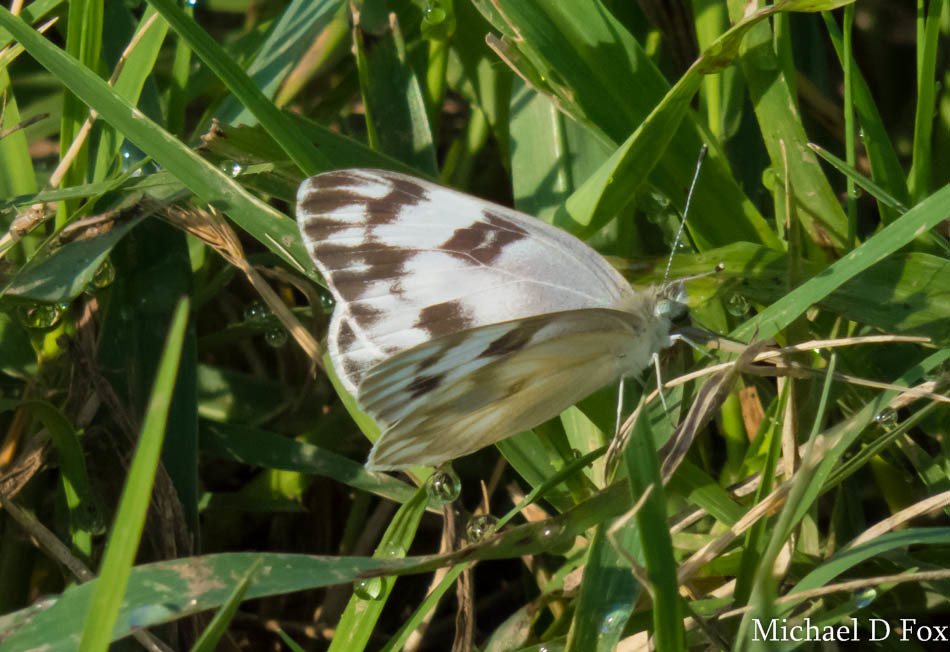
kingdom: Animalia
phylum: Arthropoda
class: Insecta
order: Lepidoptera
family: Pieridae
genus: Pontia
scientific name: Pontia protodice
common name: Checkered white
